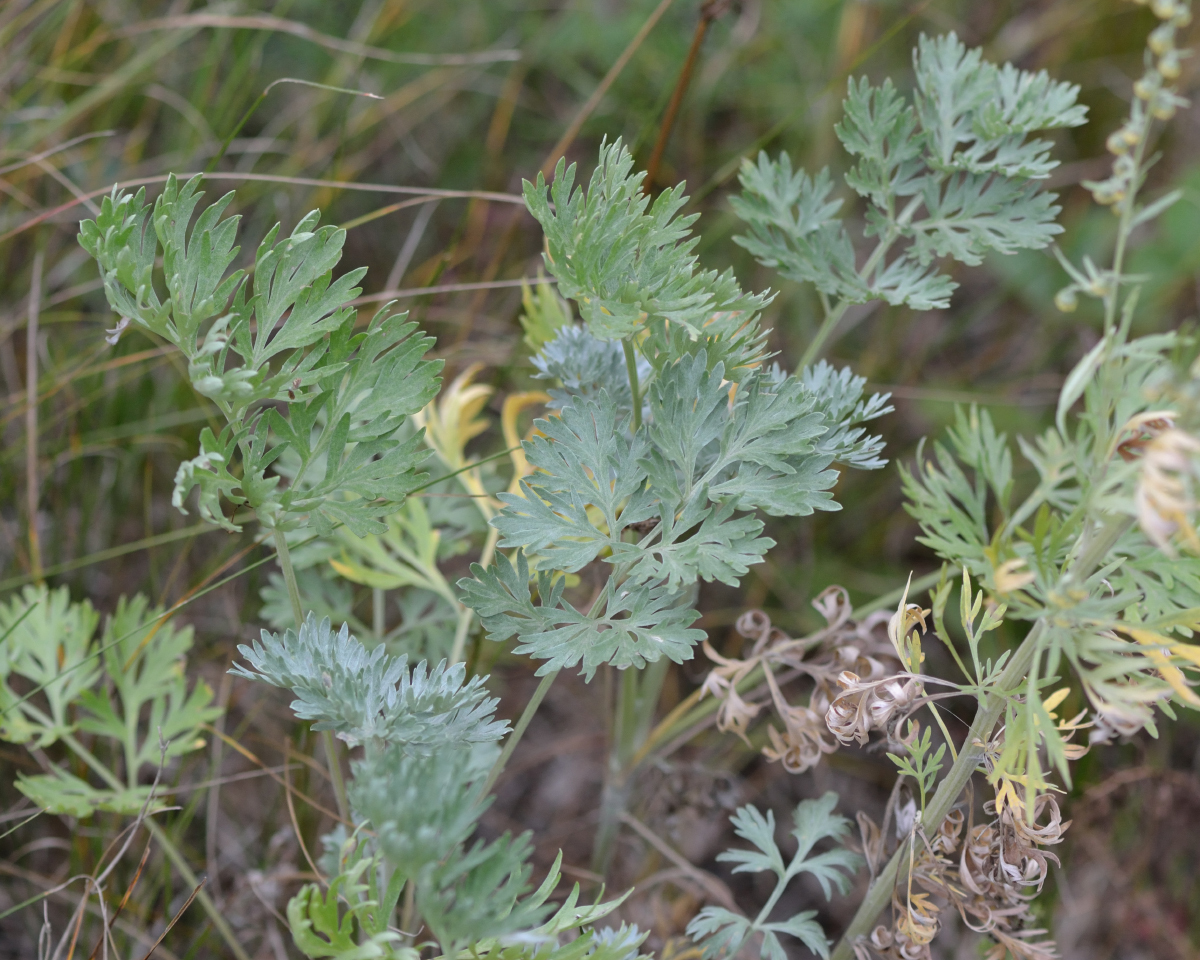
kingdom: Plantae
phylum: Tracheophyta
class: Magnoliopsida
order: Asterales
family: Asteraceae
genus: Artemisia
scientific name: Artemisia absinthium
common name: Wormwood
